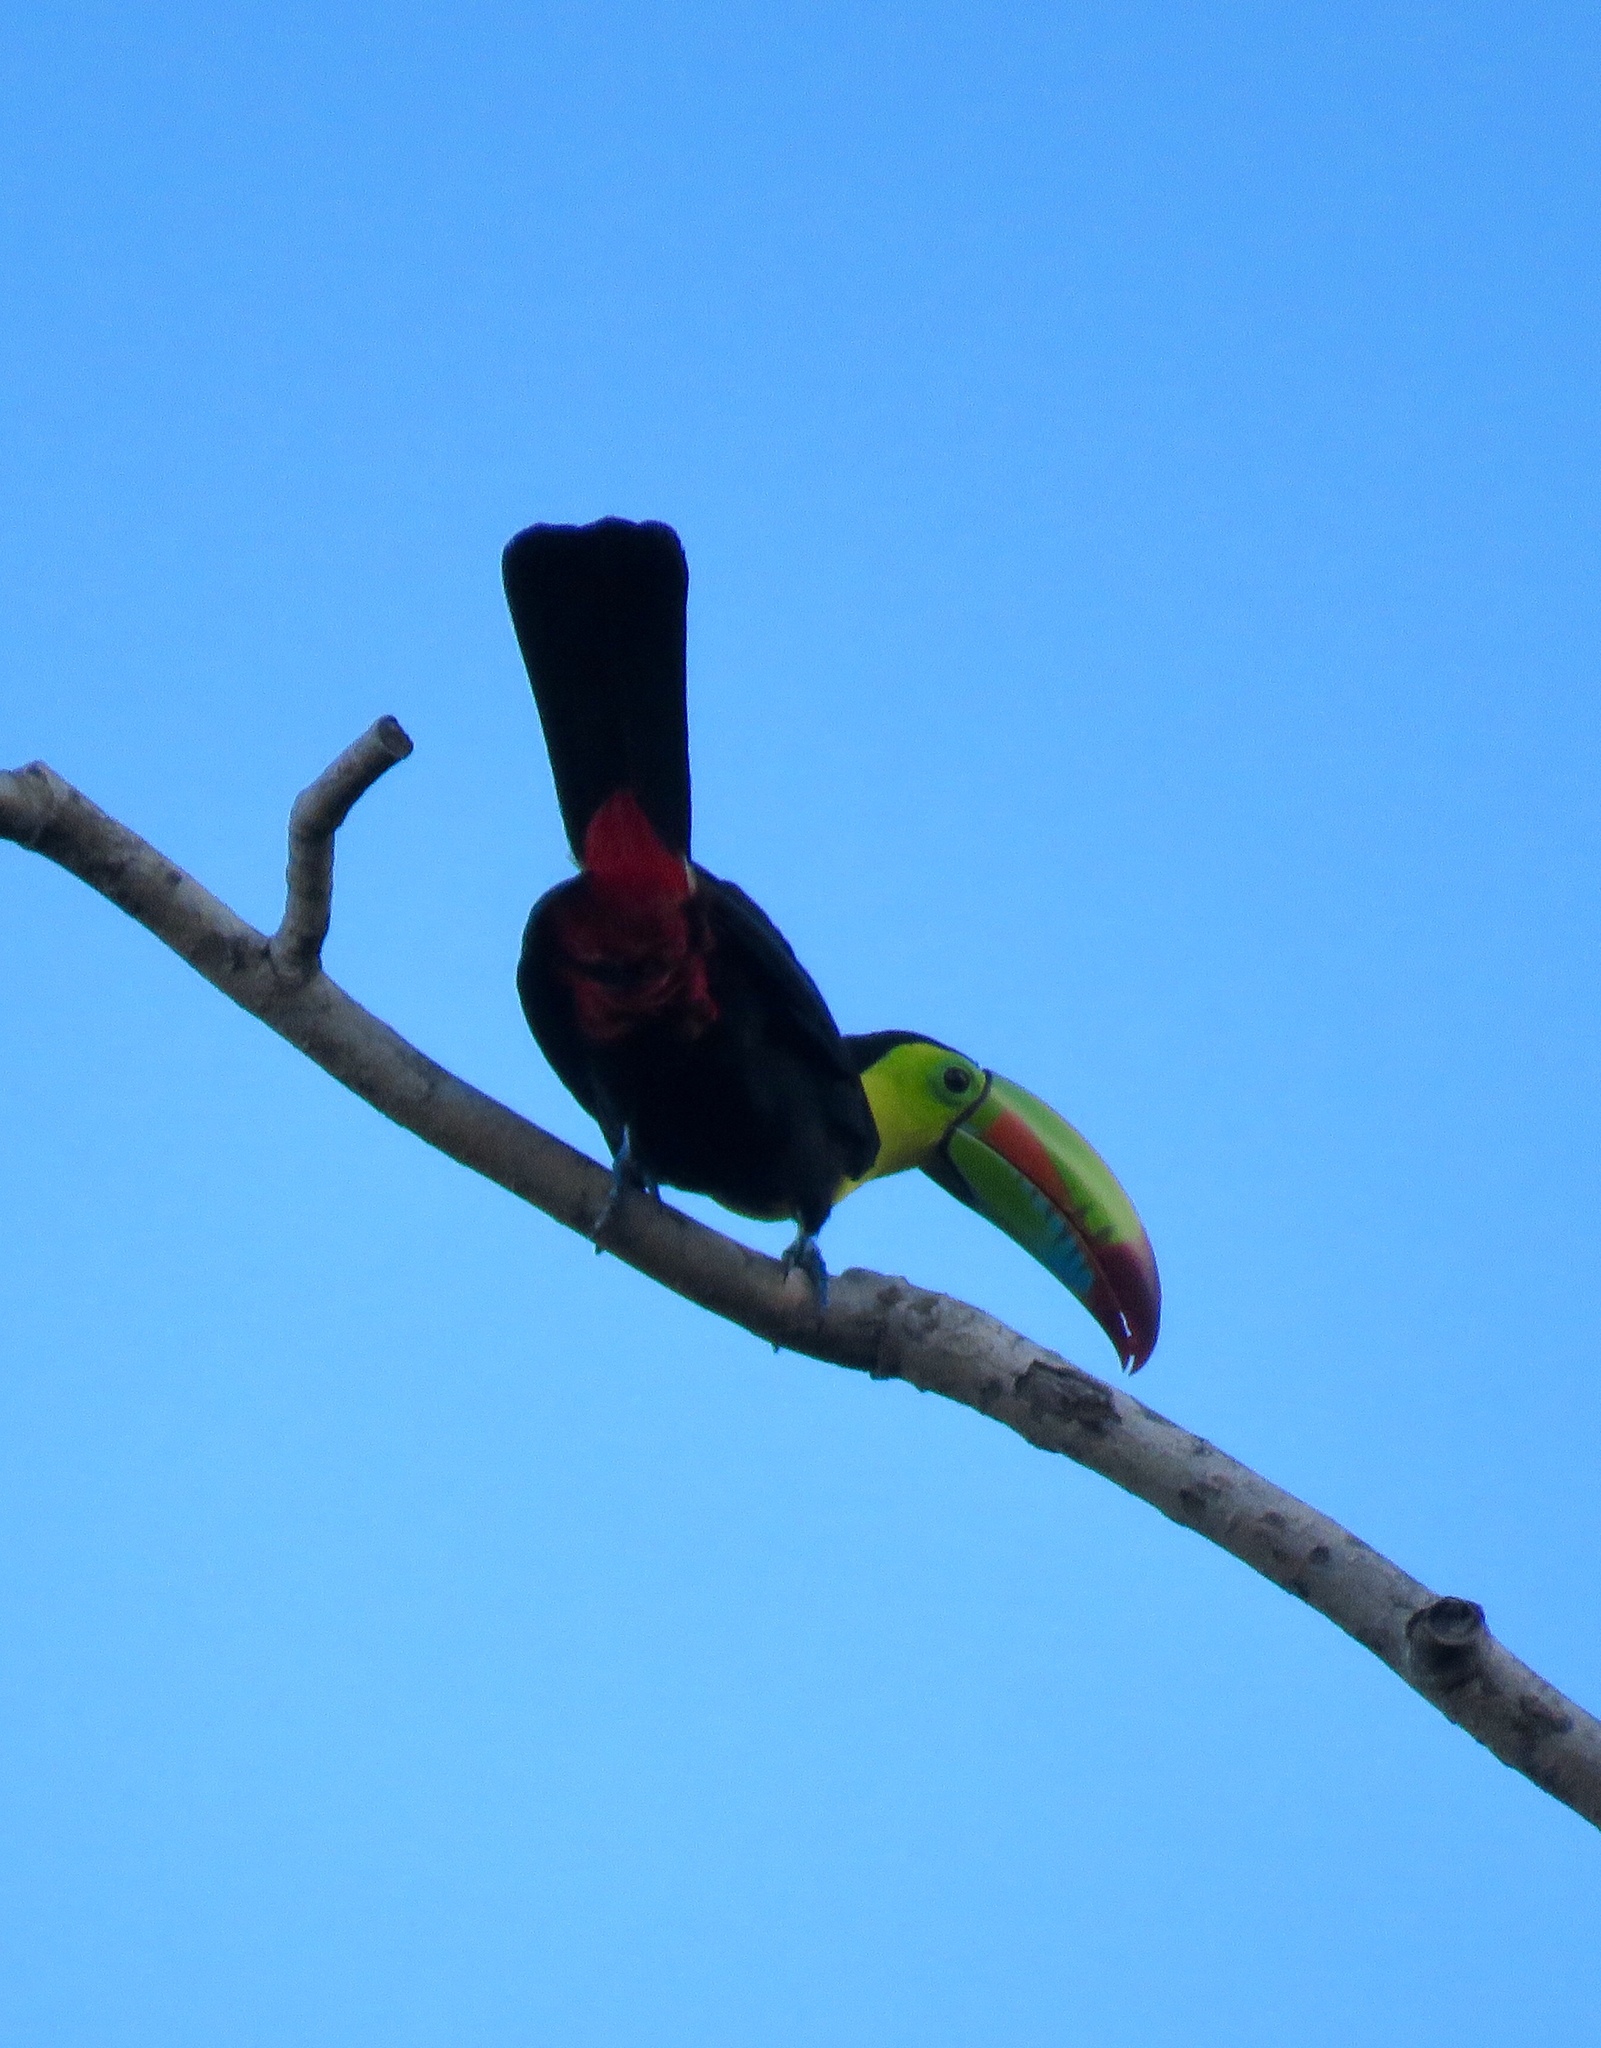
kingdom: Animalia
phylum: Chordata
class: Aves
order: Piciformes
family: Ramphastidae
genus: Ramphastos
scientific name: Ramphastos sulfuratus
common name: Keel-billed toucan
